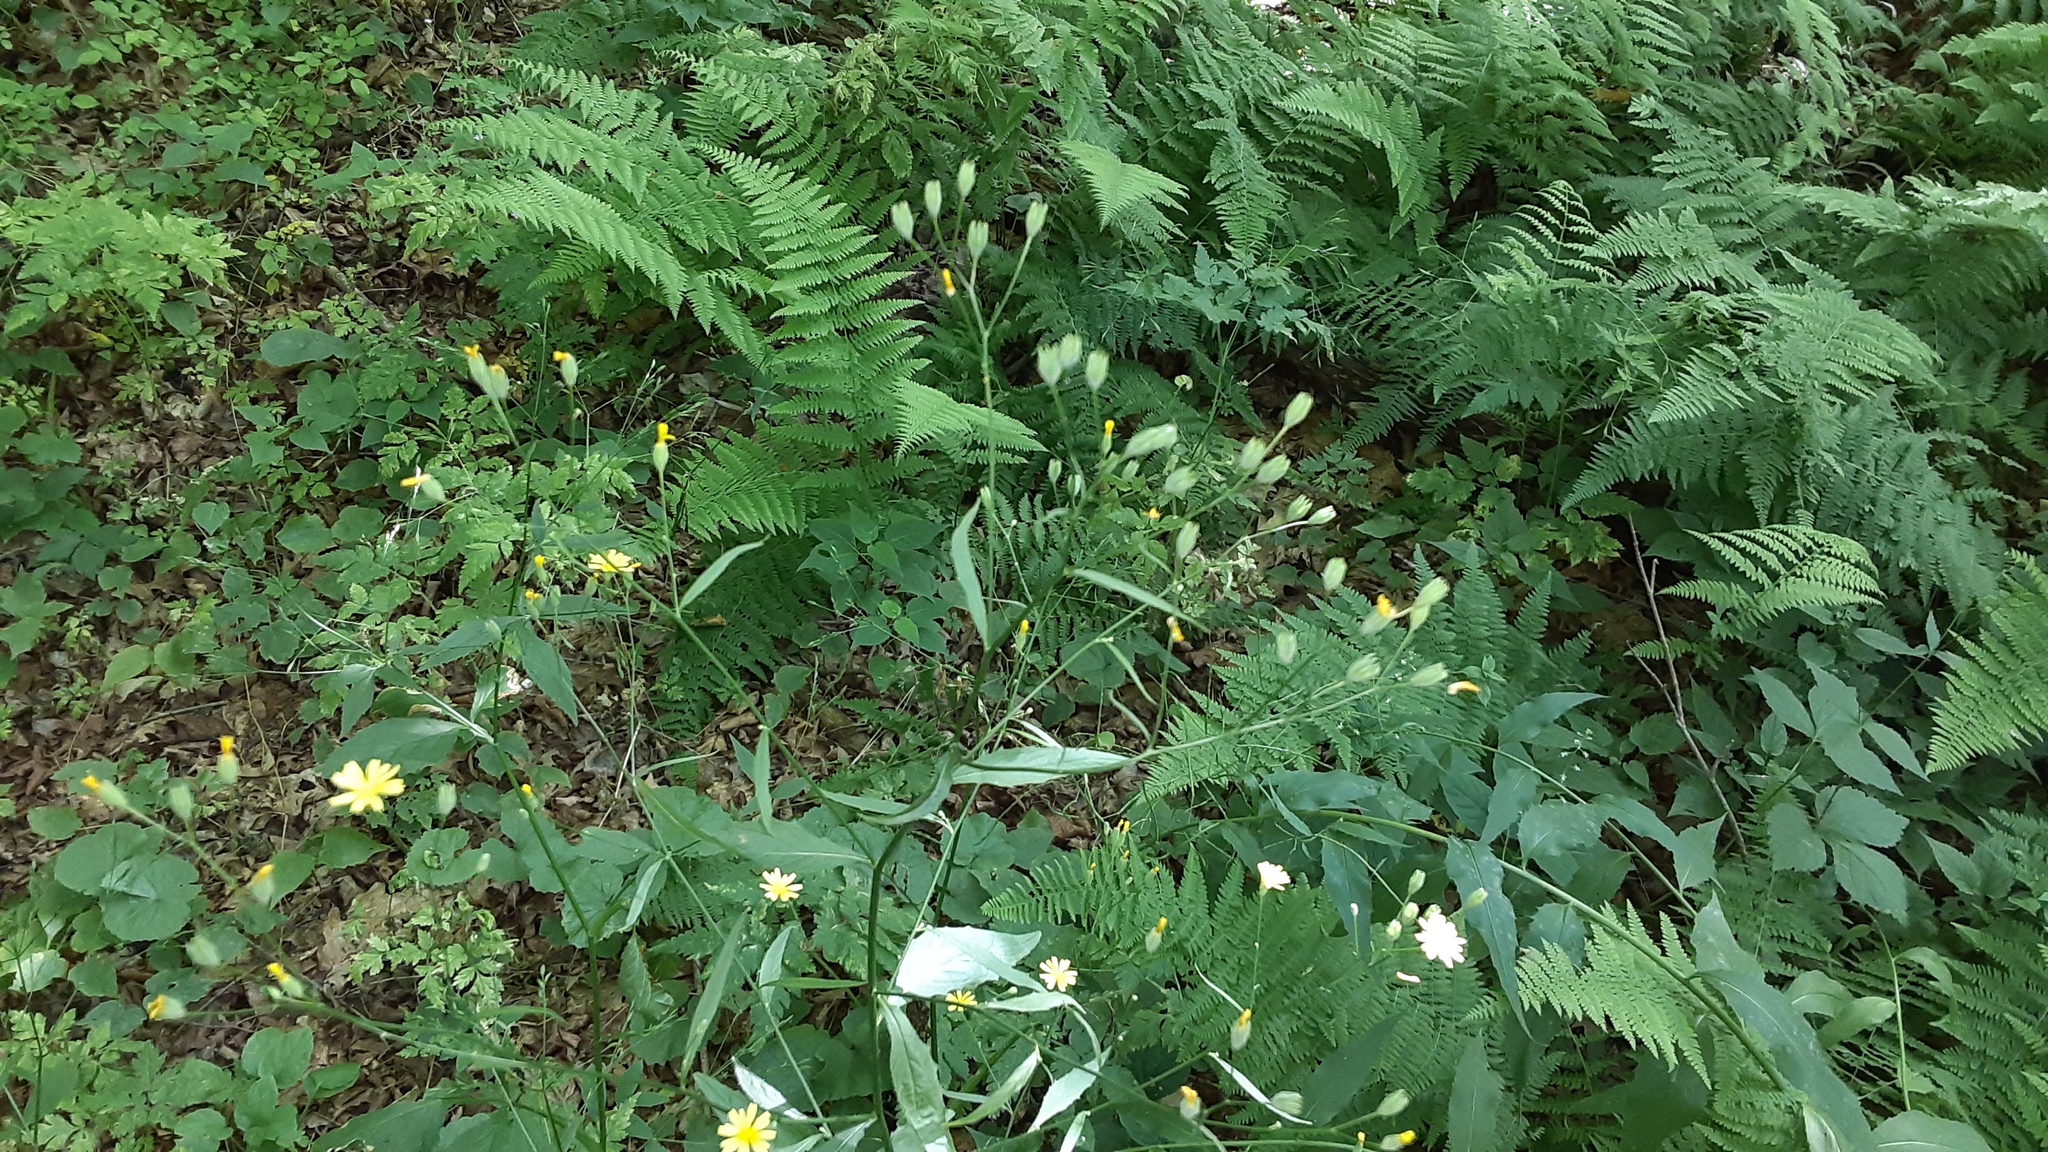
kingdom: Plantae
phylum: Tracheophyta
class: Magnoliopsida
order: Asterales
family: Asteraceae
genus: Lapsana
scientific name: Lapsana communis
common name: Nipplewort
